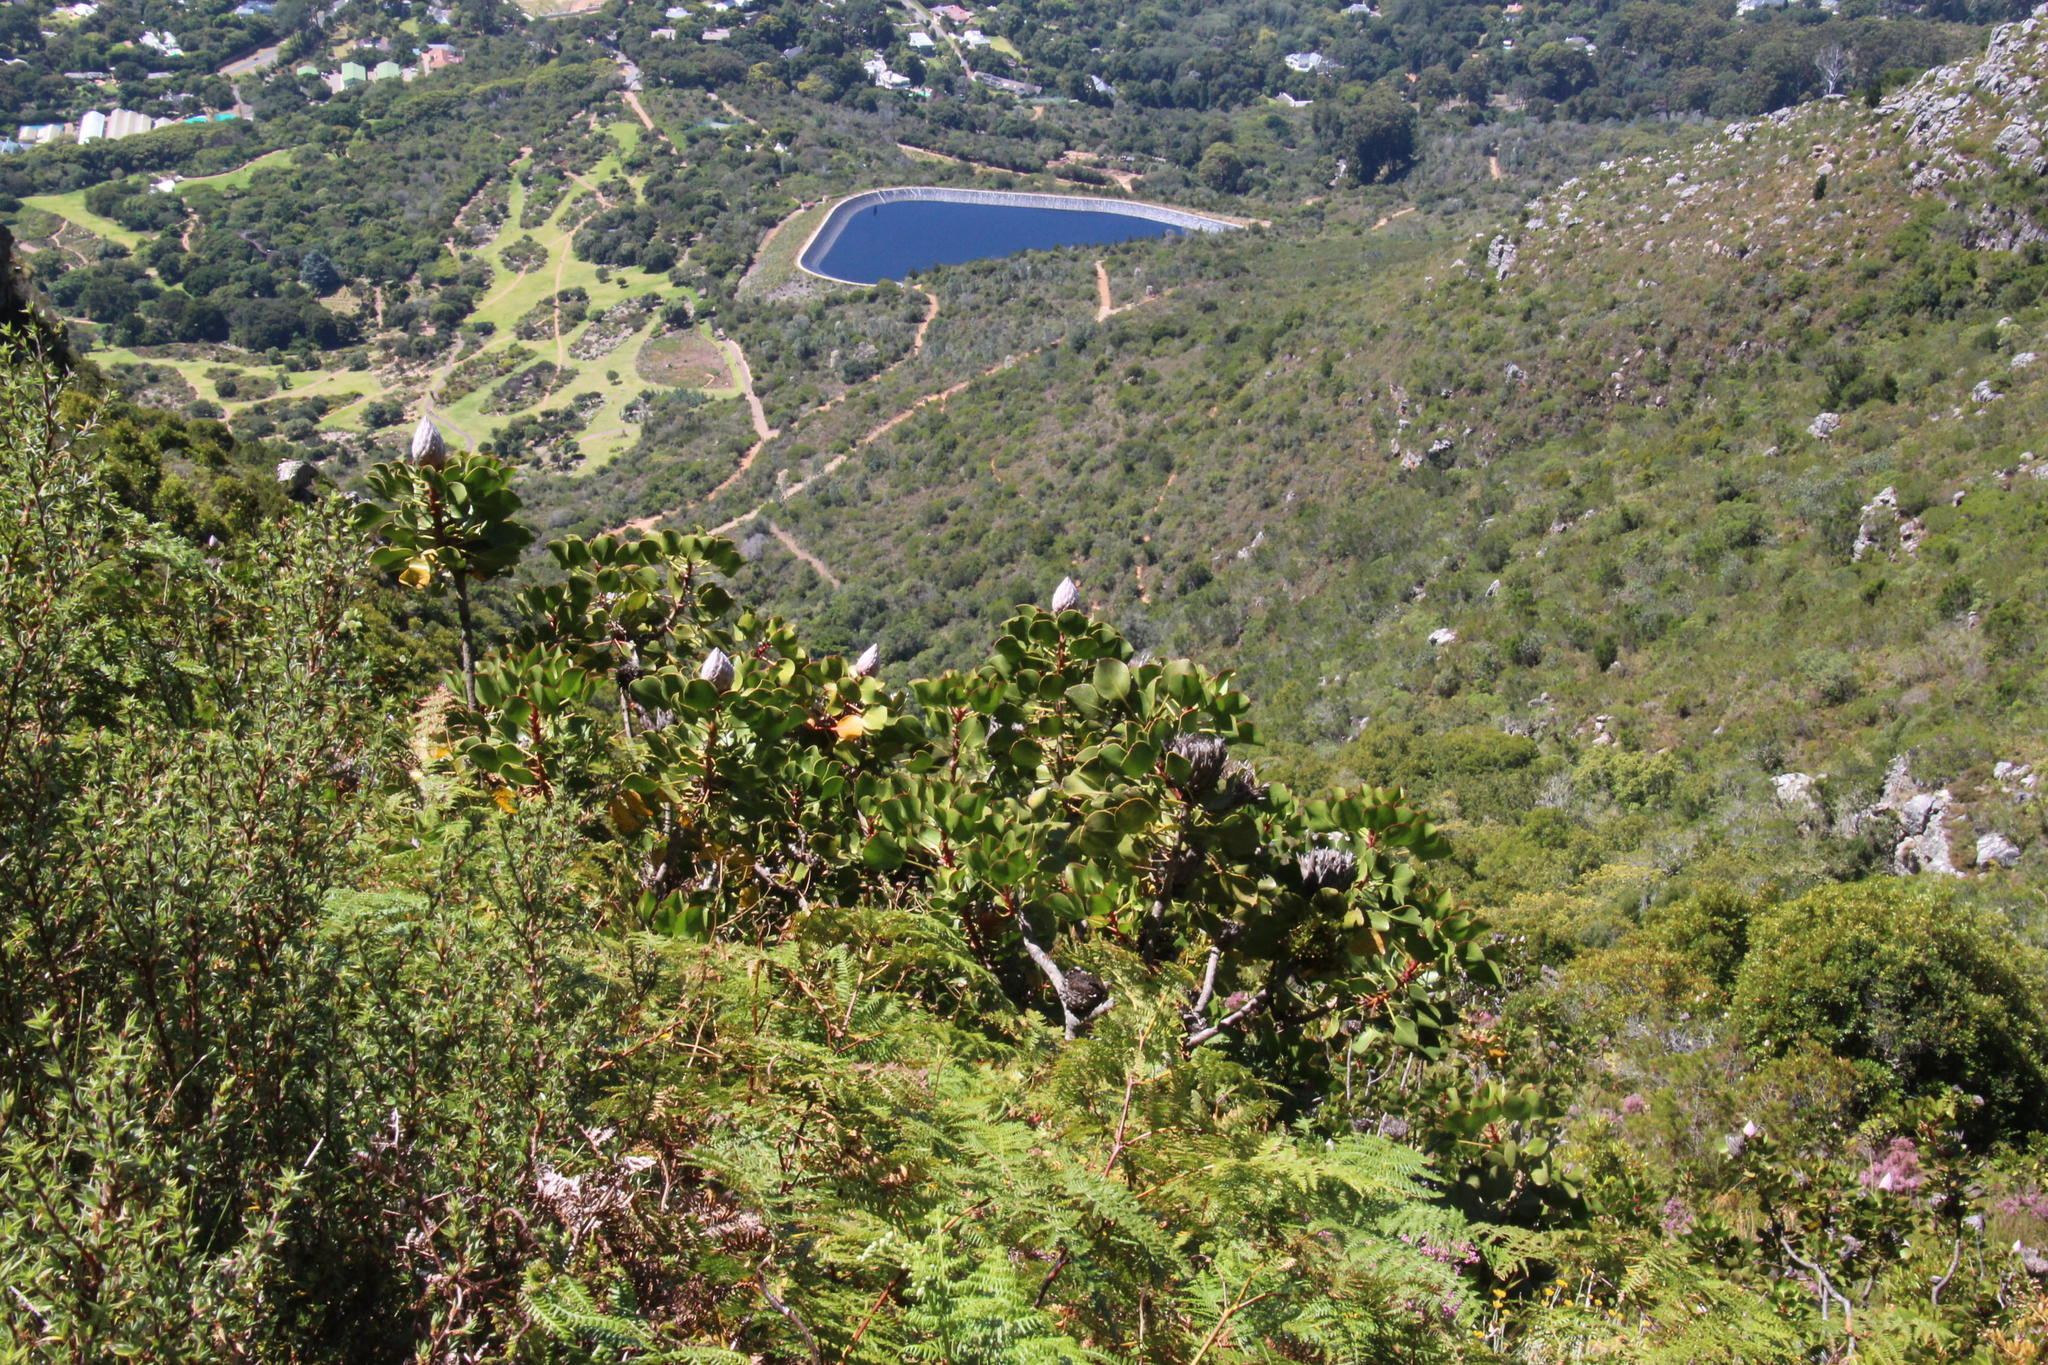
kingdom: Plantae
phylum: Tracheophyta
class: Magnoliopsida
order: Proteales
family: Proteaceae
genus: Protea
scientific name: Protea cynaroides
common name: King protea
